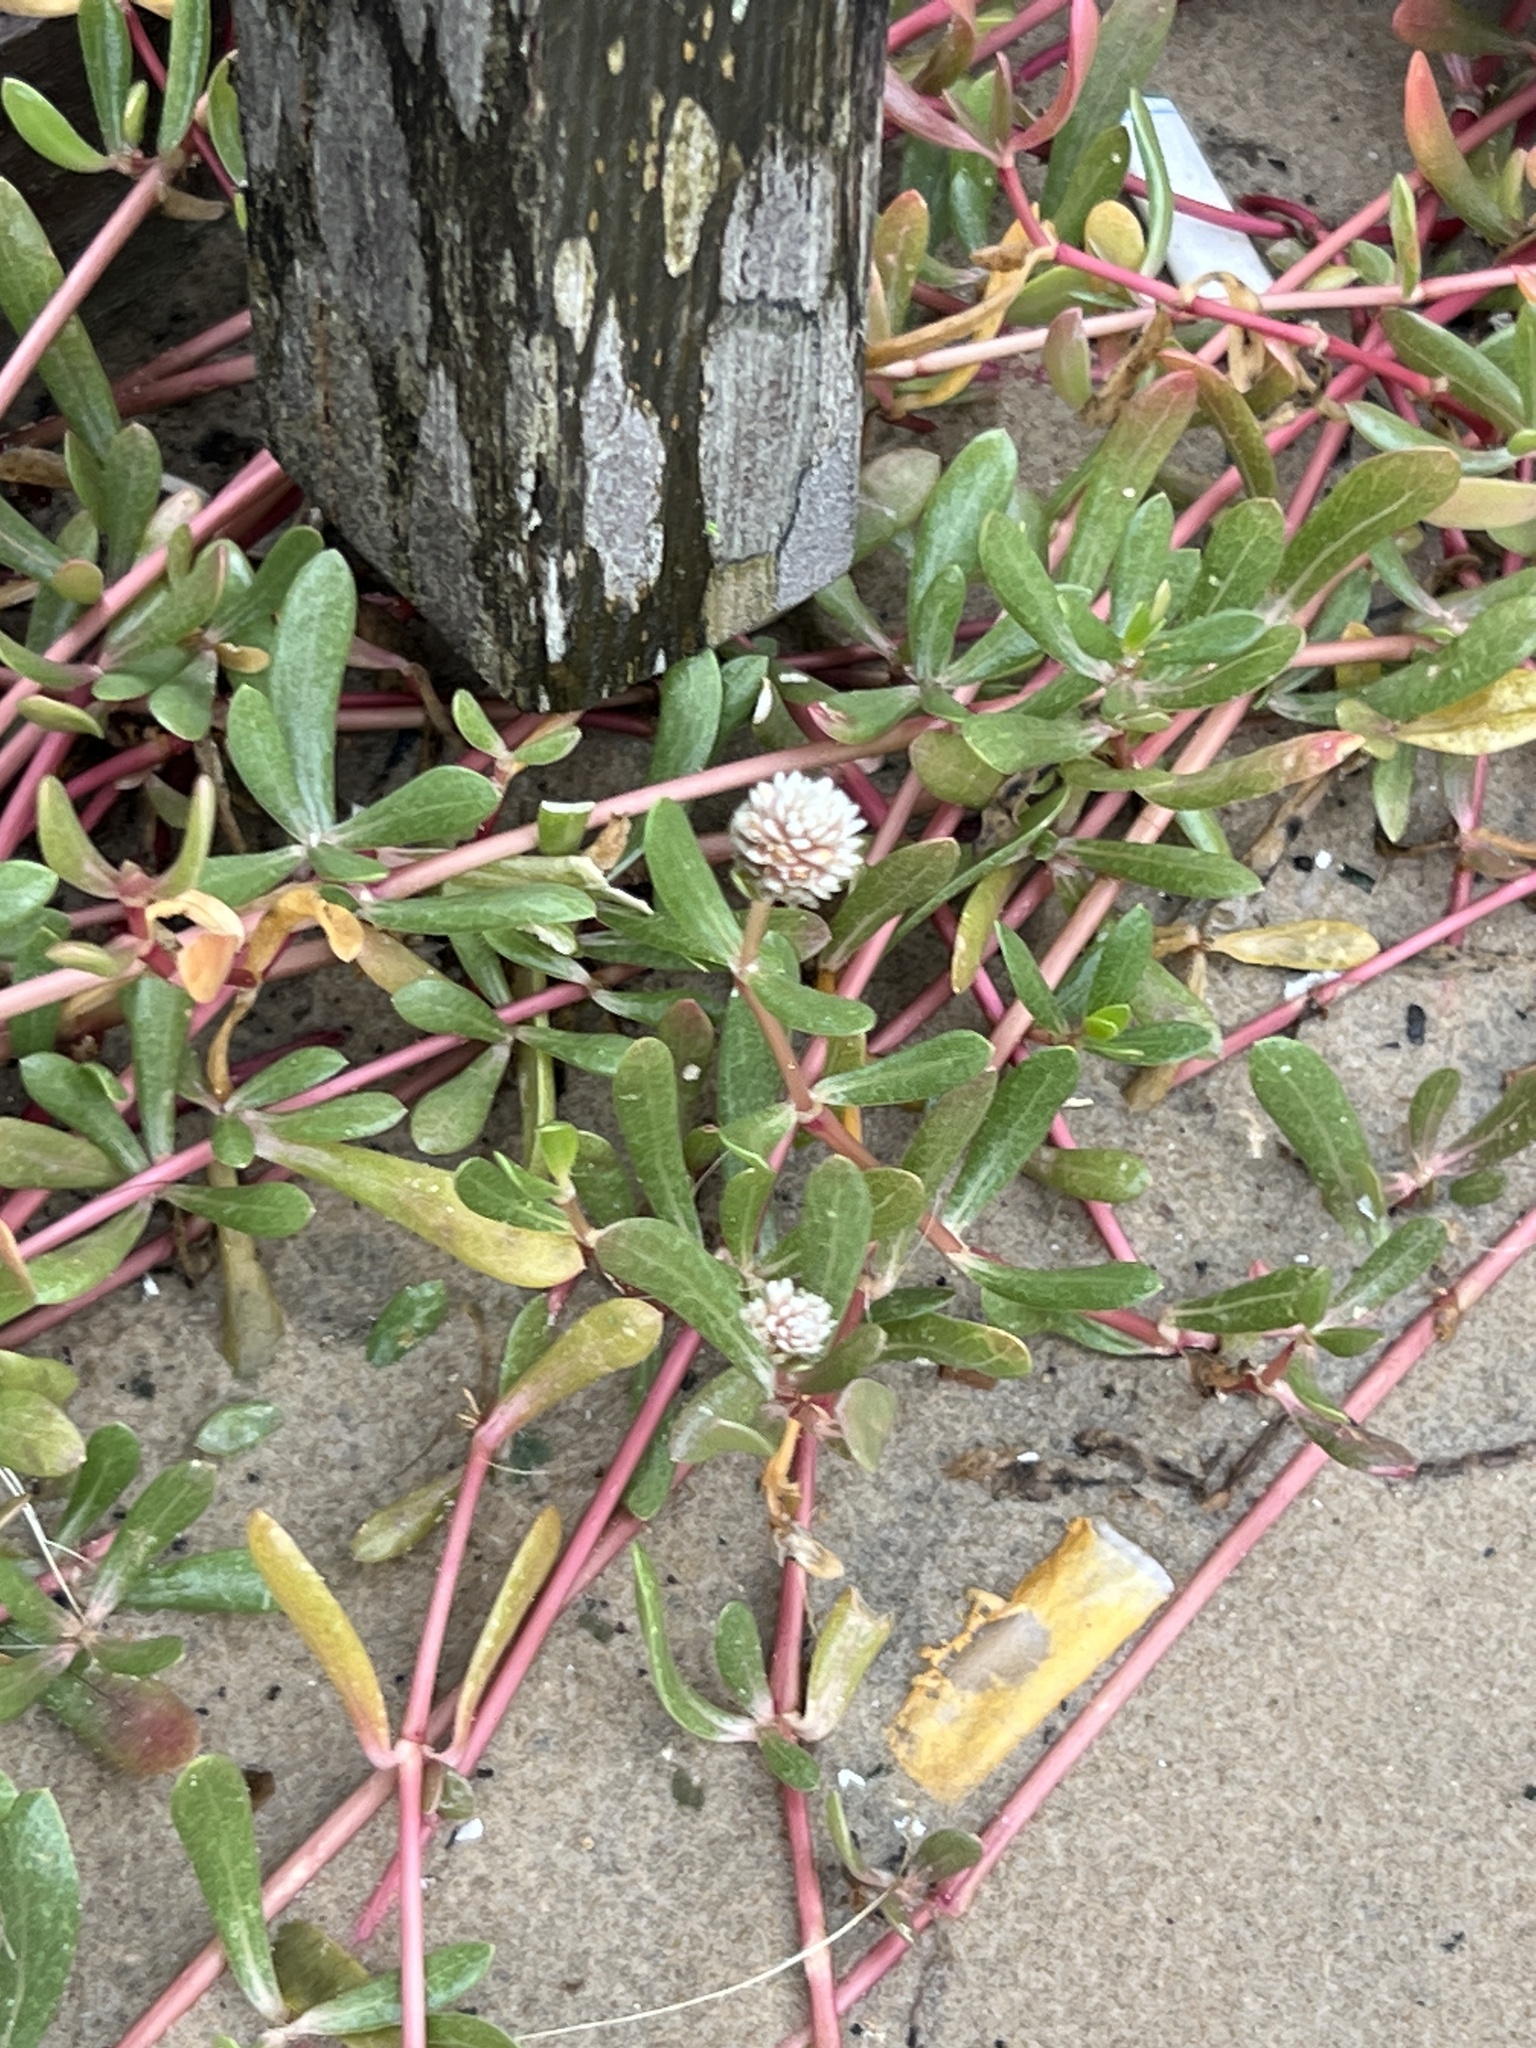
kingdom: Plantae
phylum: Tracheophyta
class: Magnoliopsida
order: Caryophyllales
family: Amaranthaceae
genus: Gomphrena
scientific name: Gomphrena vermicularis
